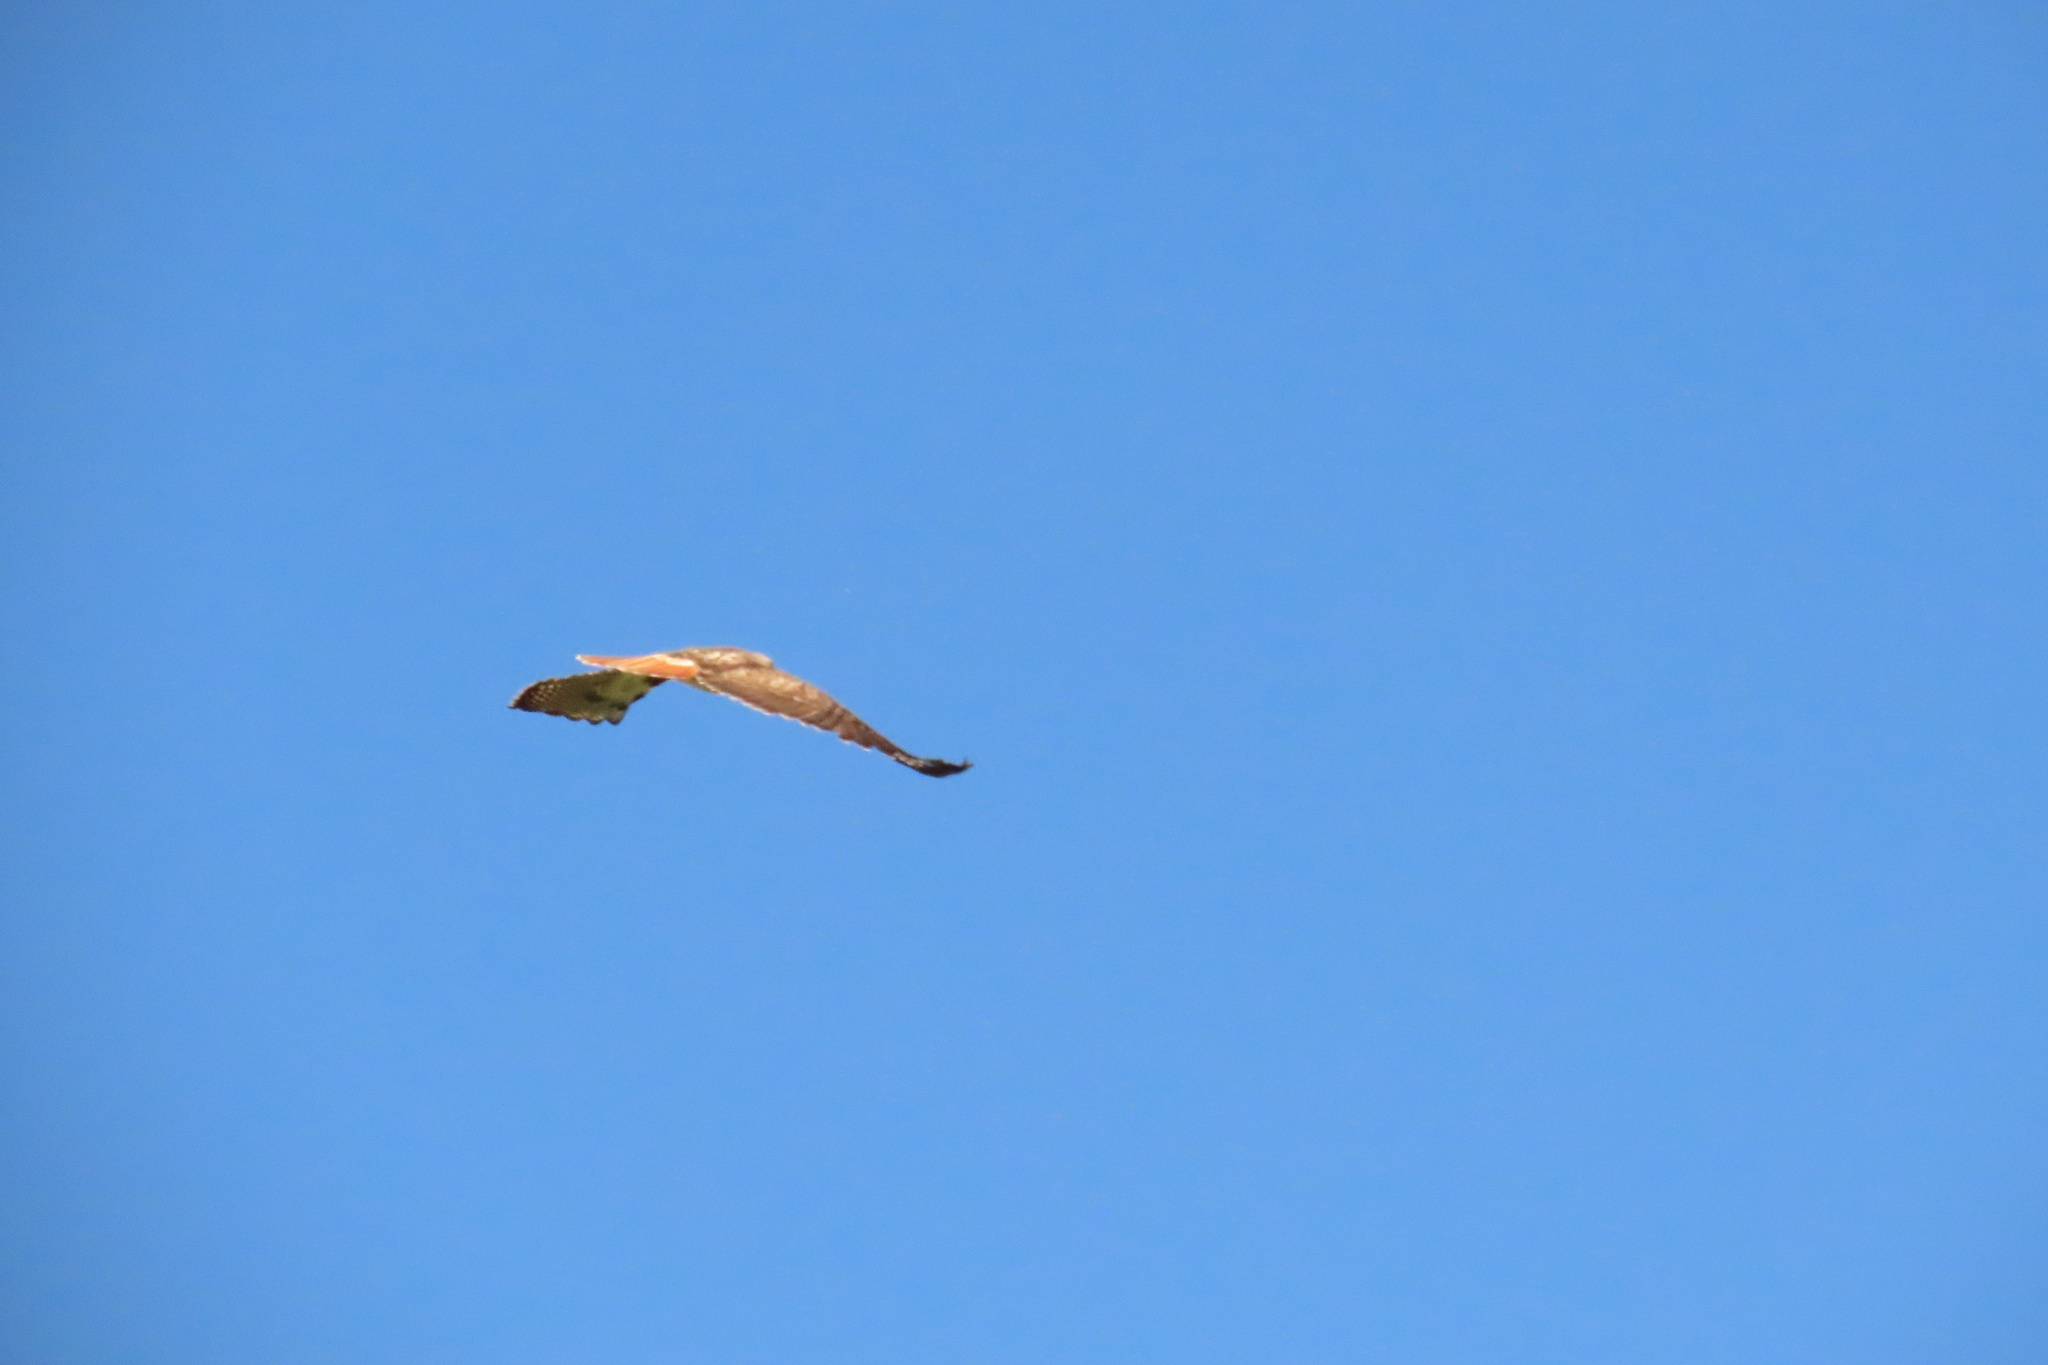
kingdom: Animalia
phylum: Chordata
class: Aves
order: Accipitriformes
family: Accipitridae
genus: Buteo
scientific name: Buteo jamaicensis
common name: Red-tailed hawk
